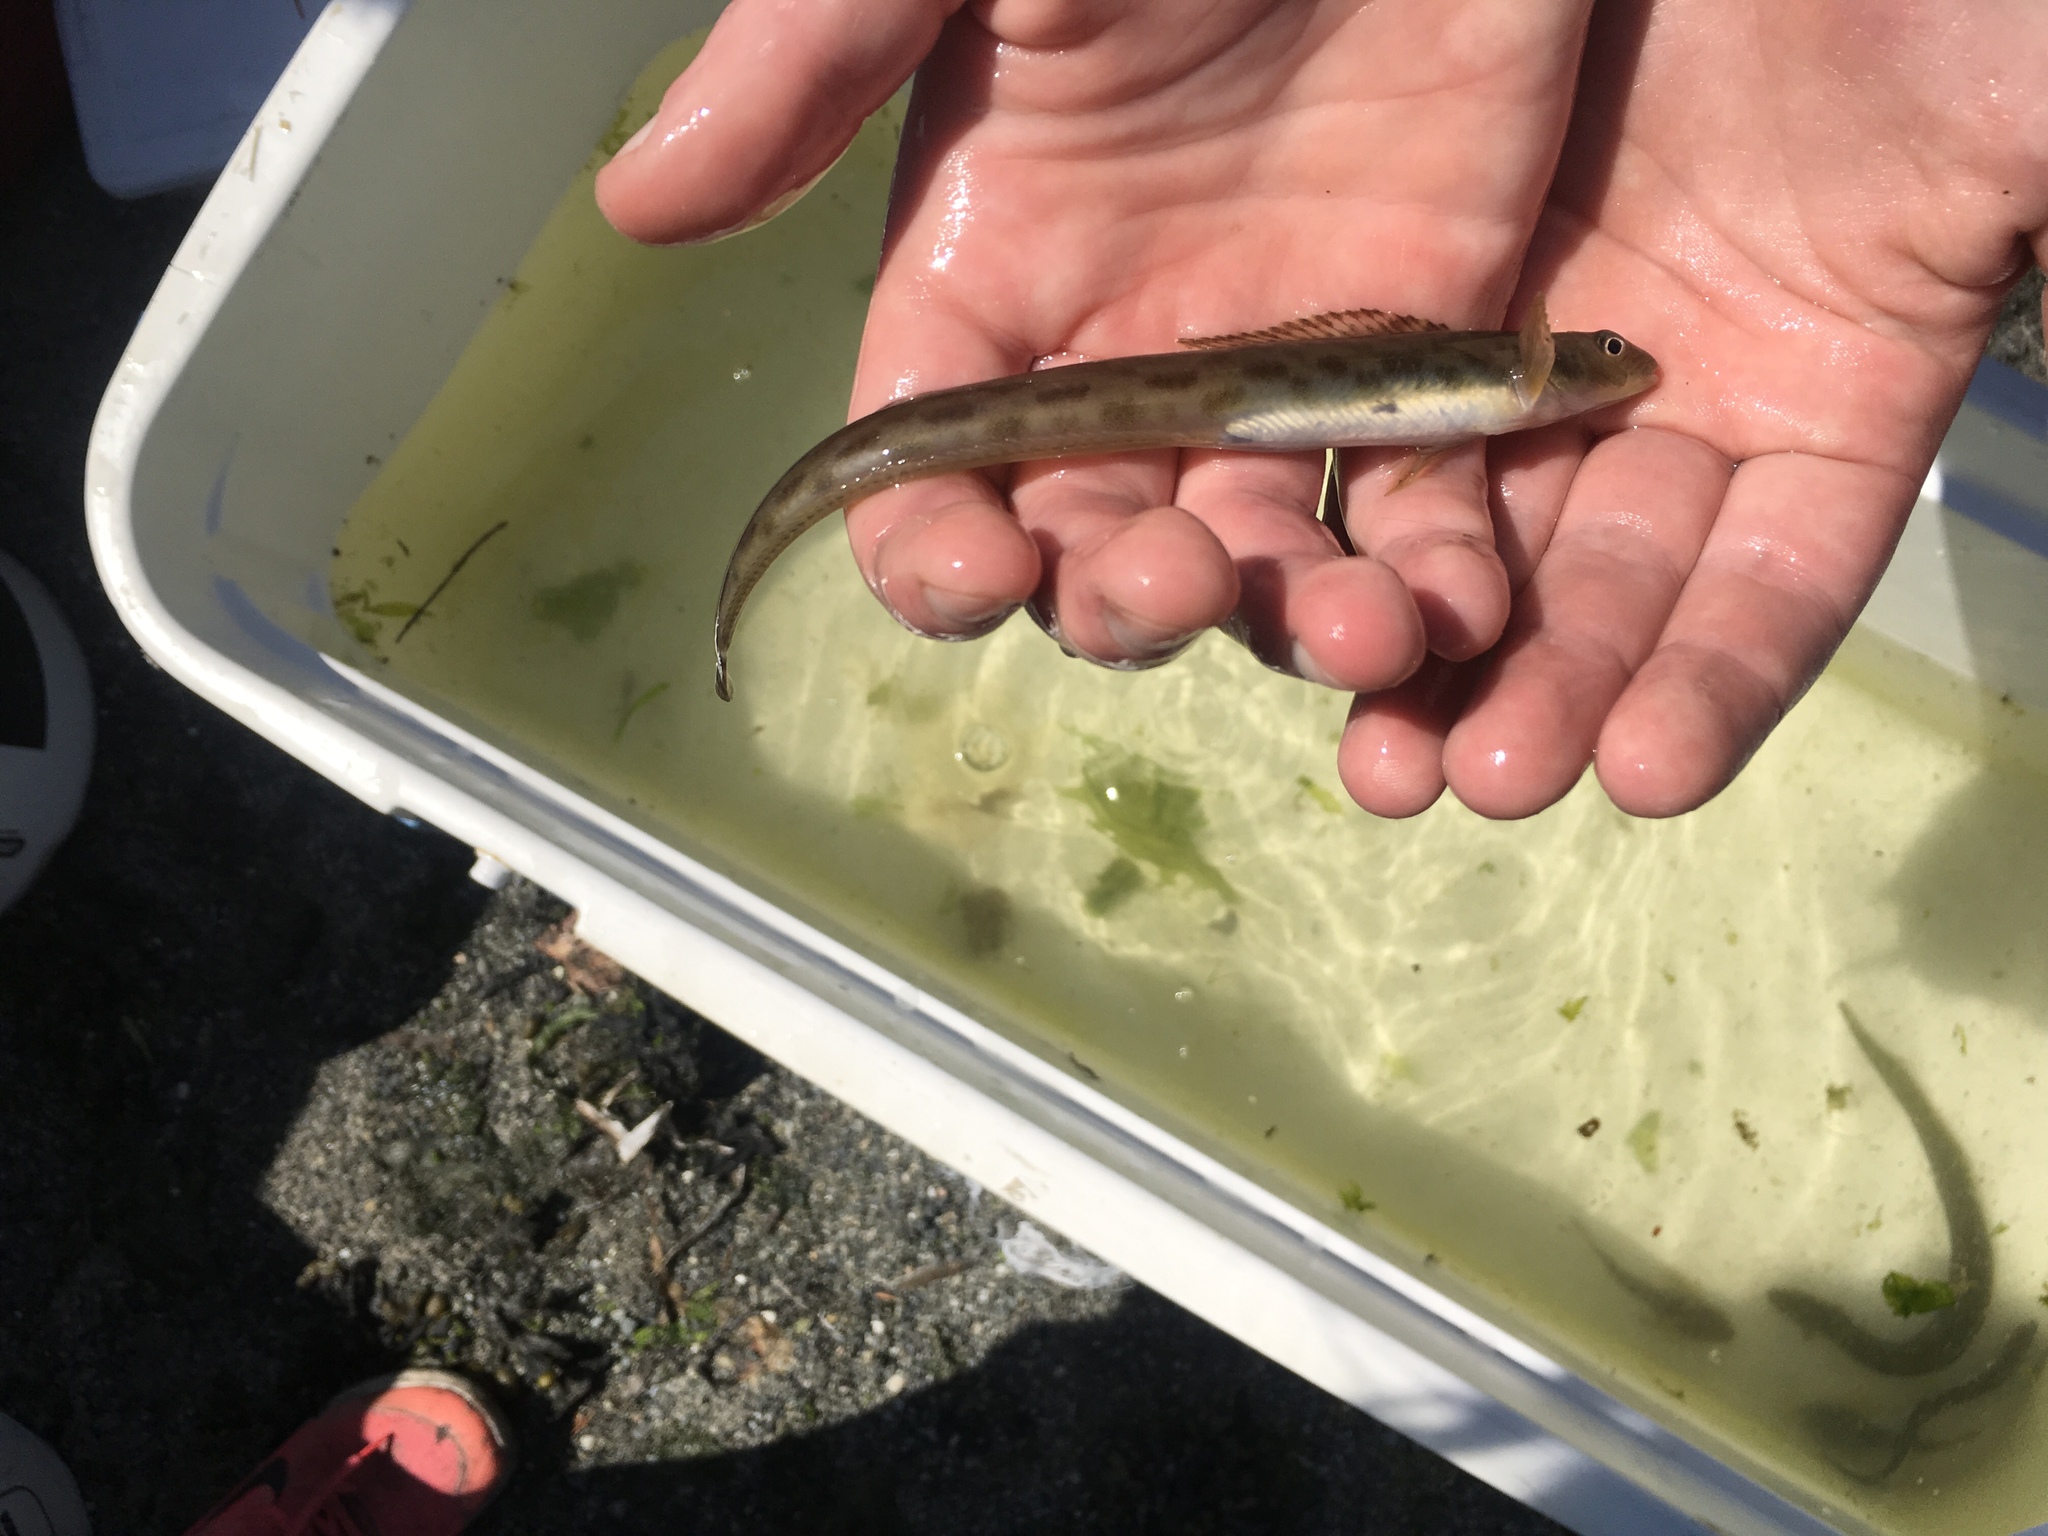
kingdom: Animalia
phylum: Chordata
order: Perciformes
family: Stichaeidae
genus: Lumpenus
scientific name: Lumpenus sagitta
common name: Snake prickleback
